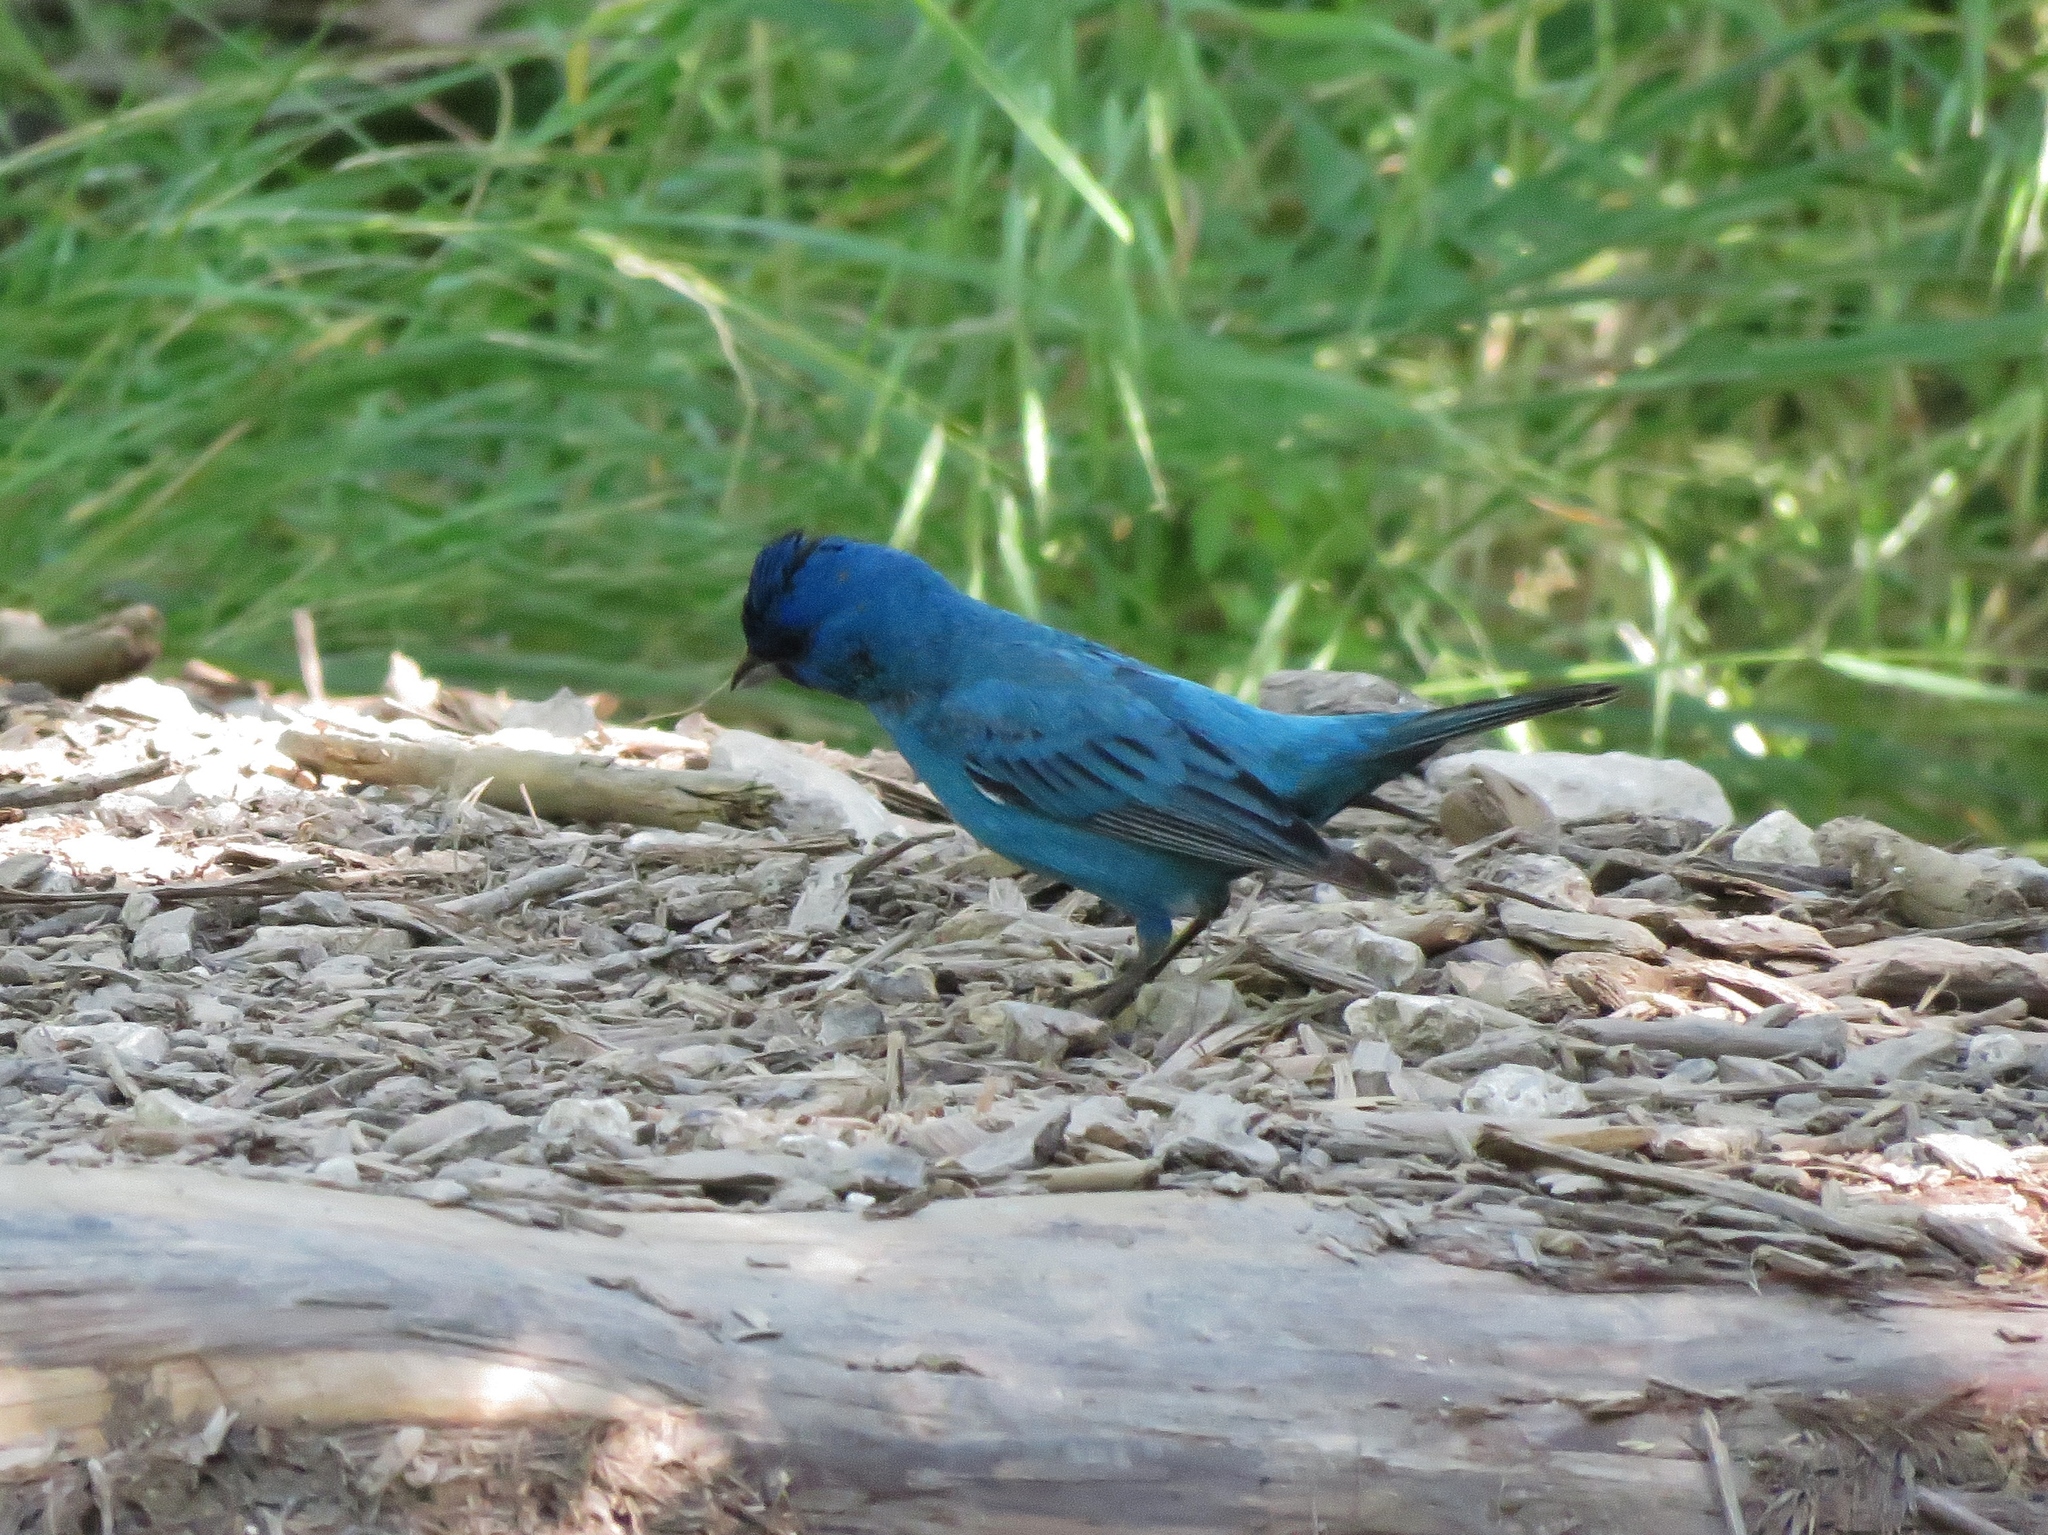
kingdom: Animalia
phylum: Chordata
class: Aves
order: Passeriformes
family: Cardinalidae
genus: Passerina
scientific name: Passerina cyanea
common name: Indigo bunting
